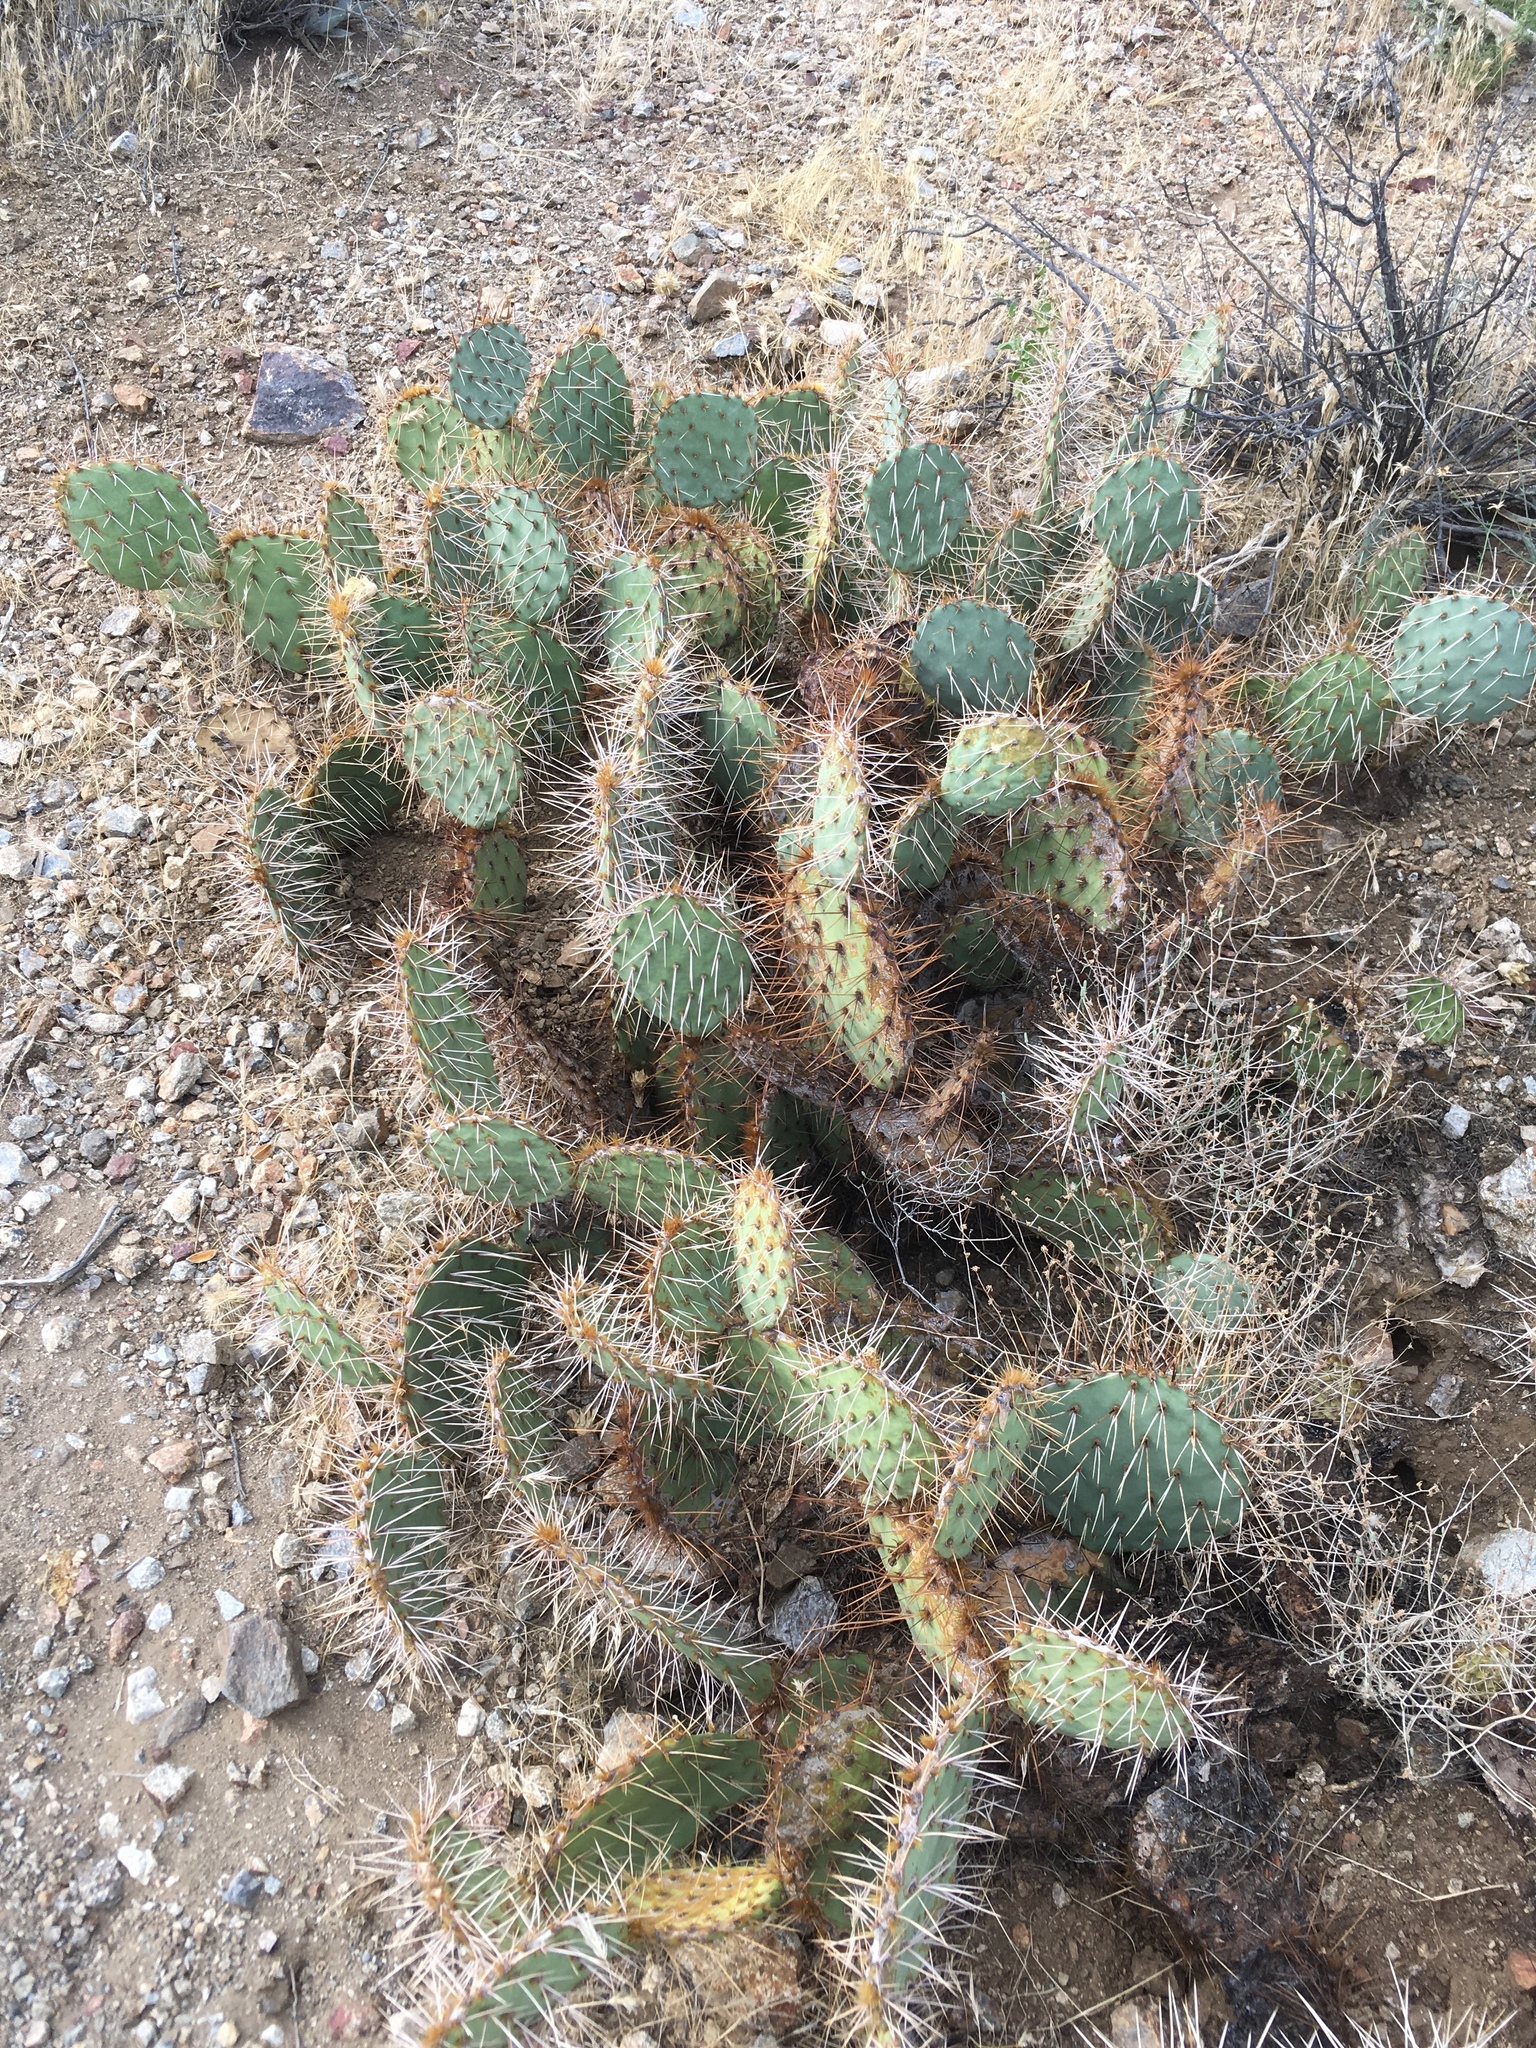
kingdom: Plantae
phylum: Tracheophyta
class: Magnoliopsida
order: Caryophyllales
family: Cactaceae
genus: Opuntia
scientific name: Opuntia phaeacantha
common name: New mexico prickly-pear
